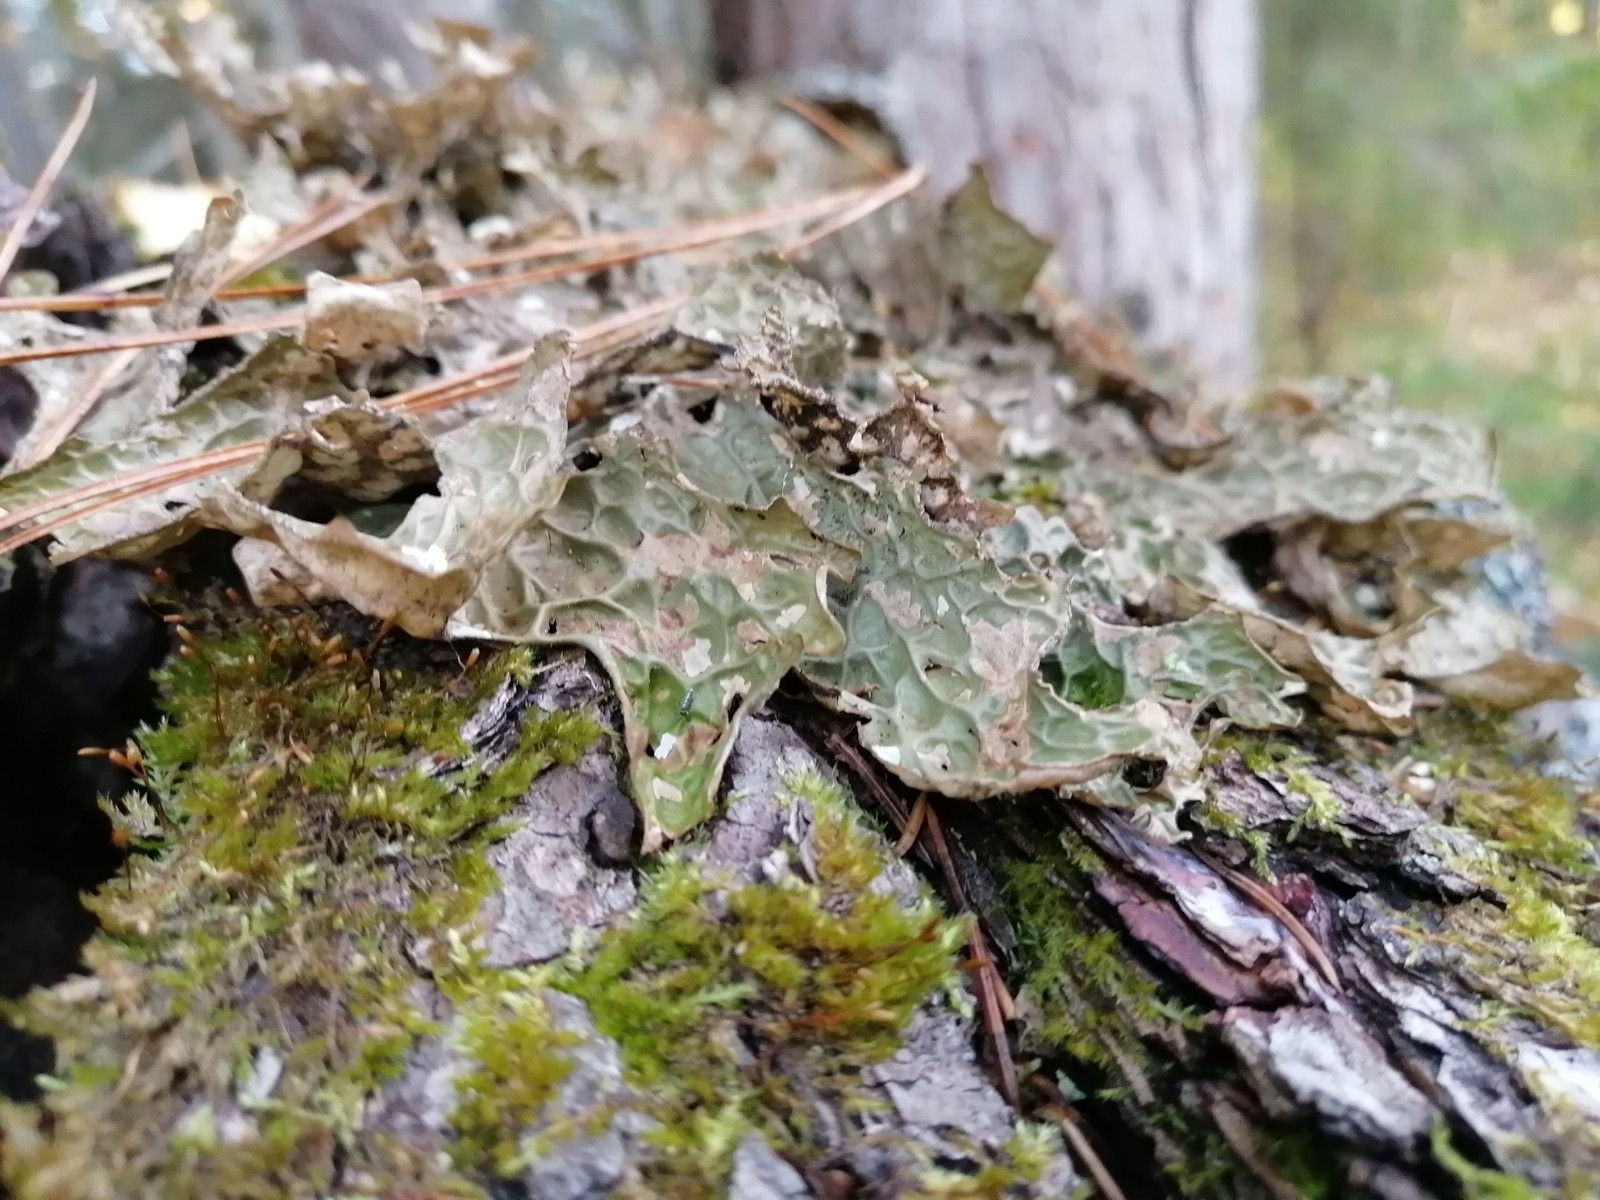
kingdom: Fungi
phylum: Ascomycota
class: Lecanoromycetes
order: Peltigerales
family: Lobariaceae
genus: Lobaria
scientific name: Lobaria pulmonaria
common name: Lungwort
